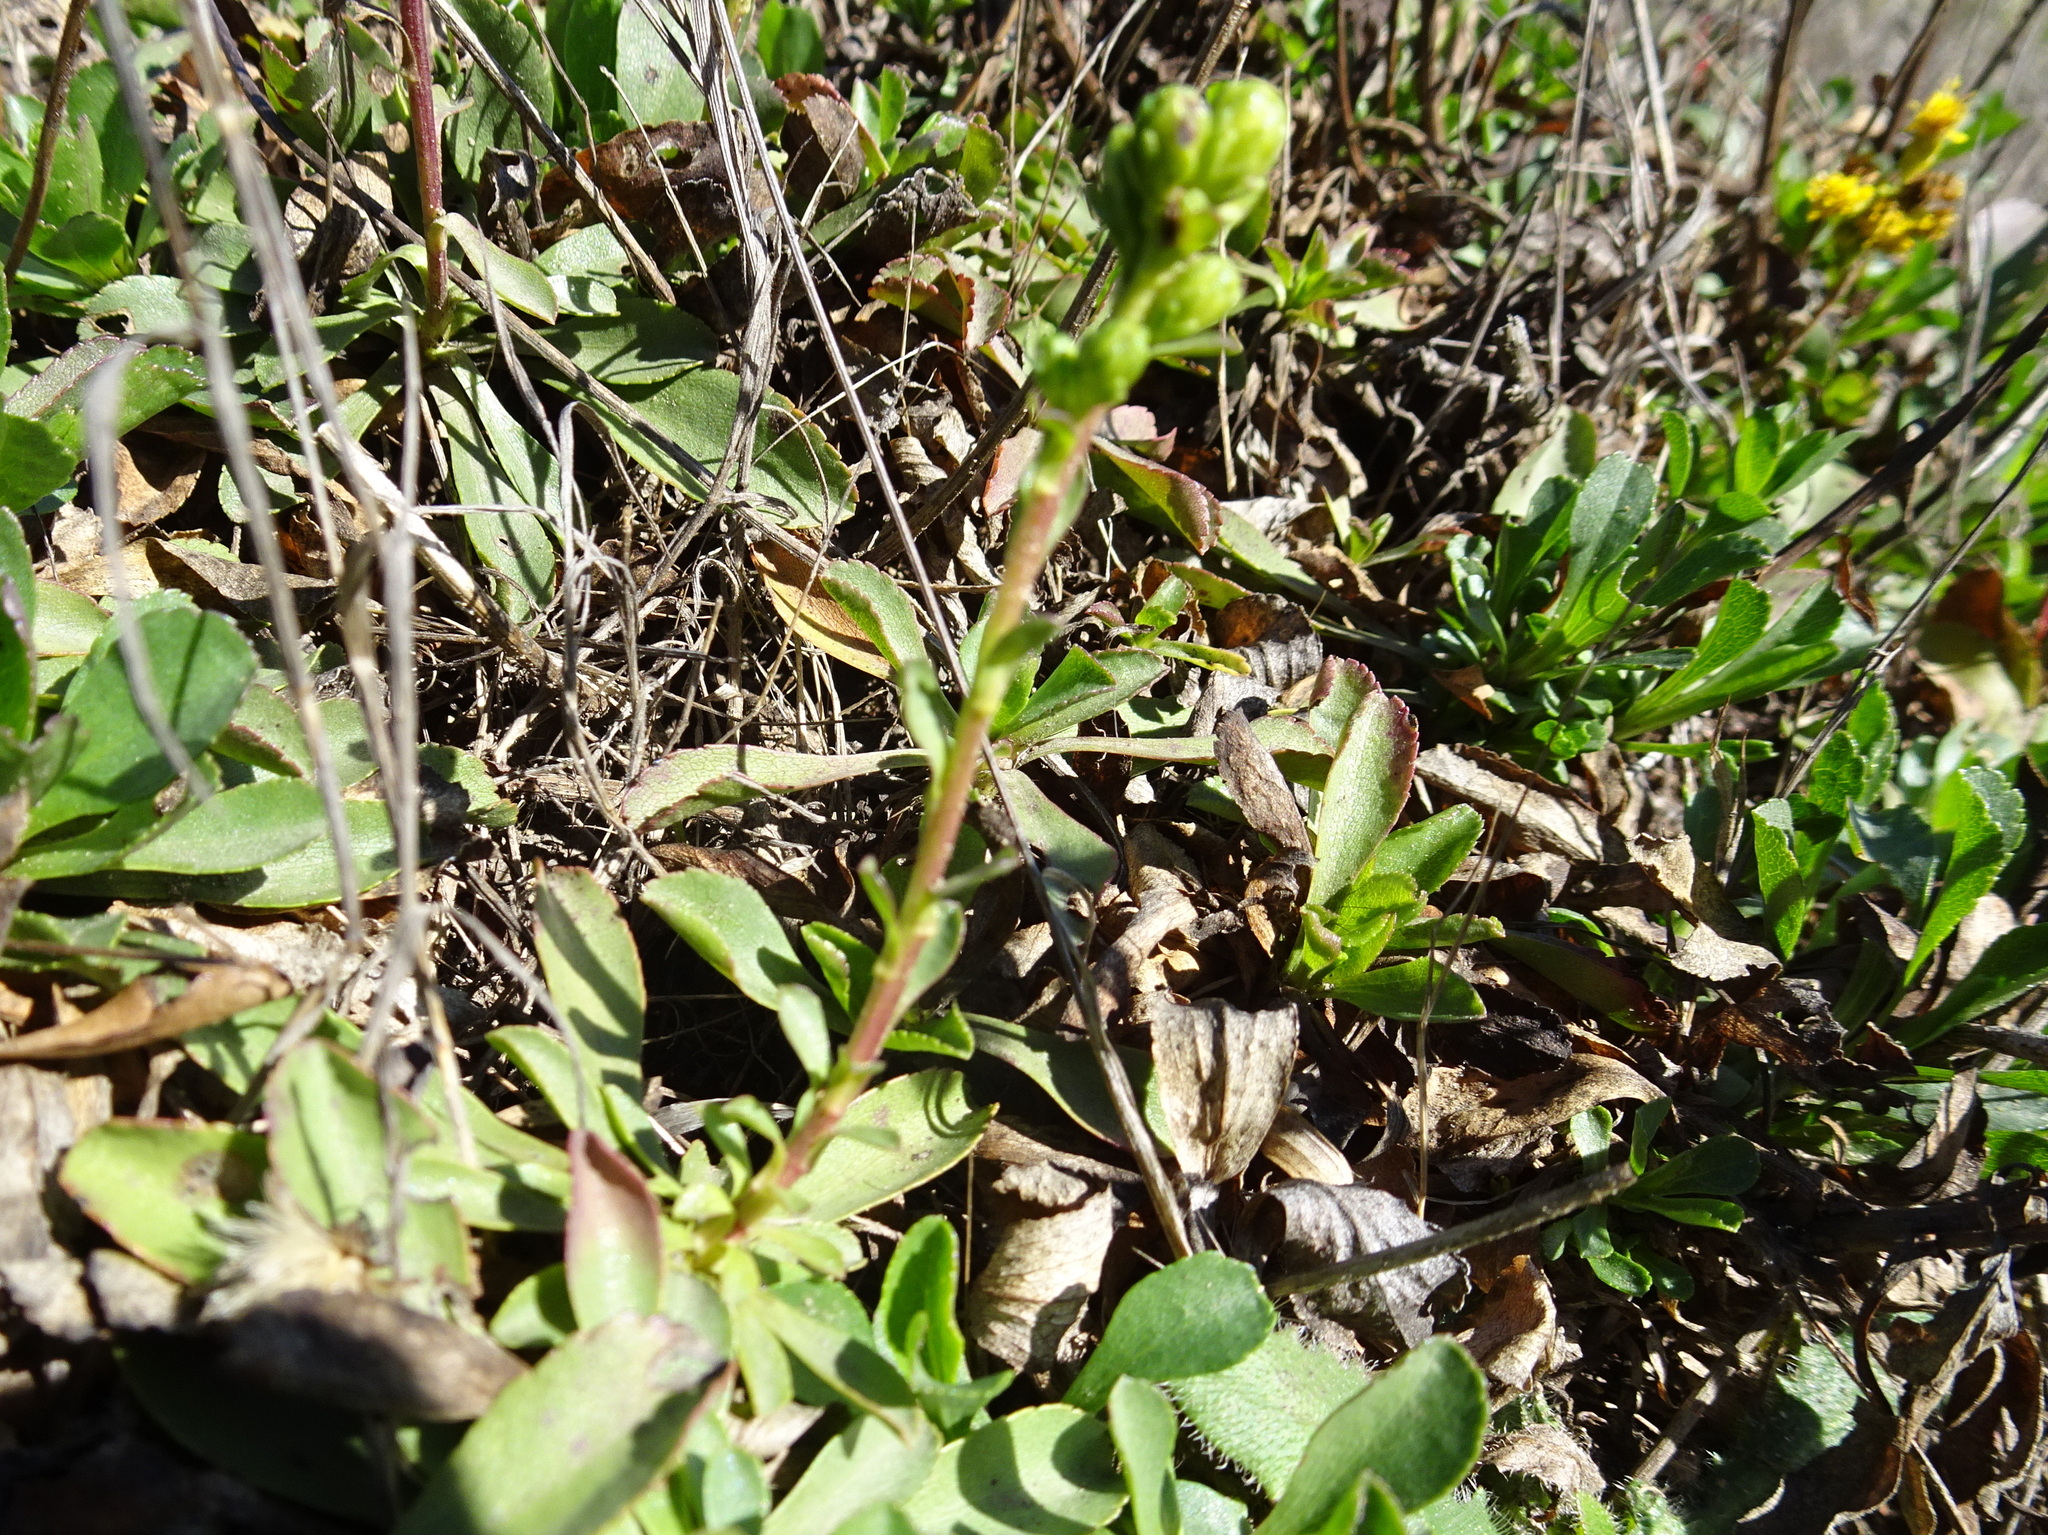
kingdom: Plantae
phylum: Tracheophyta
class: Magnoliopsida
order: Asterales
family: Asteraceae
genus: Solidago
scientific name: Solidago spathulata
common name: Coast goldenrod
